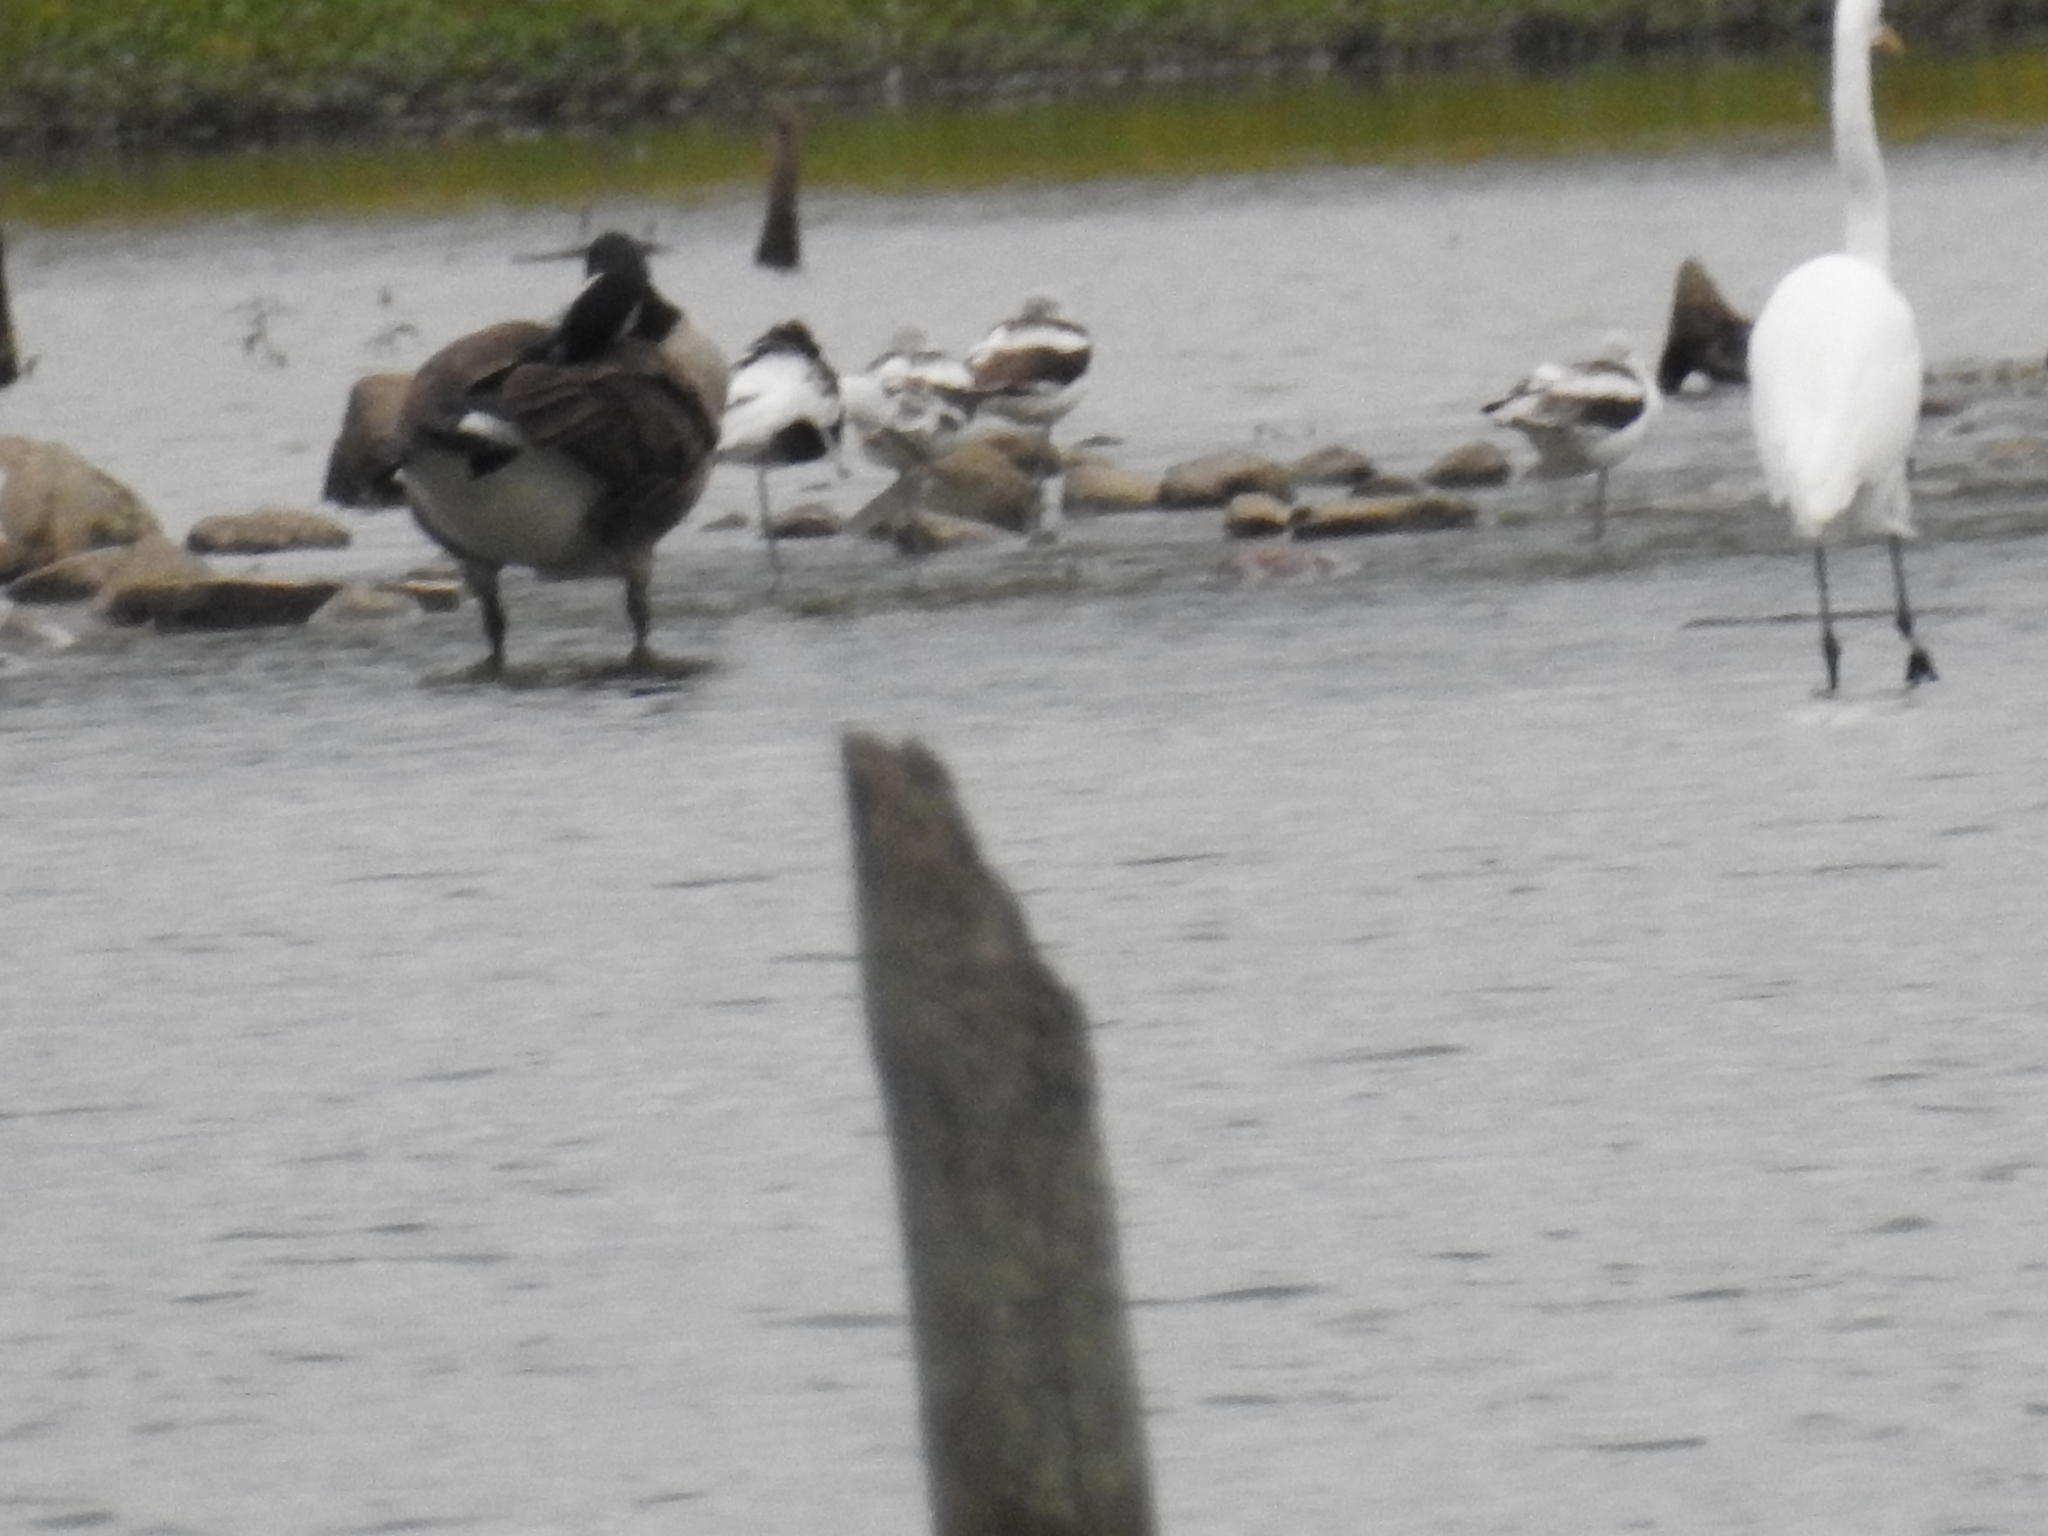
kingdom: Animalia
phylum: Chordata
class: Aves
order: Anseriformes
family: Anatidae
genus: Branta
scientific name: Branta canadensis
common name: Canada goose
